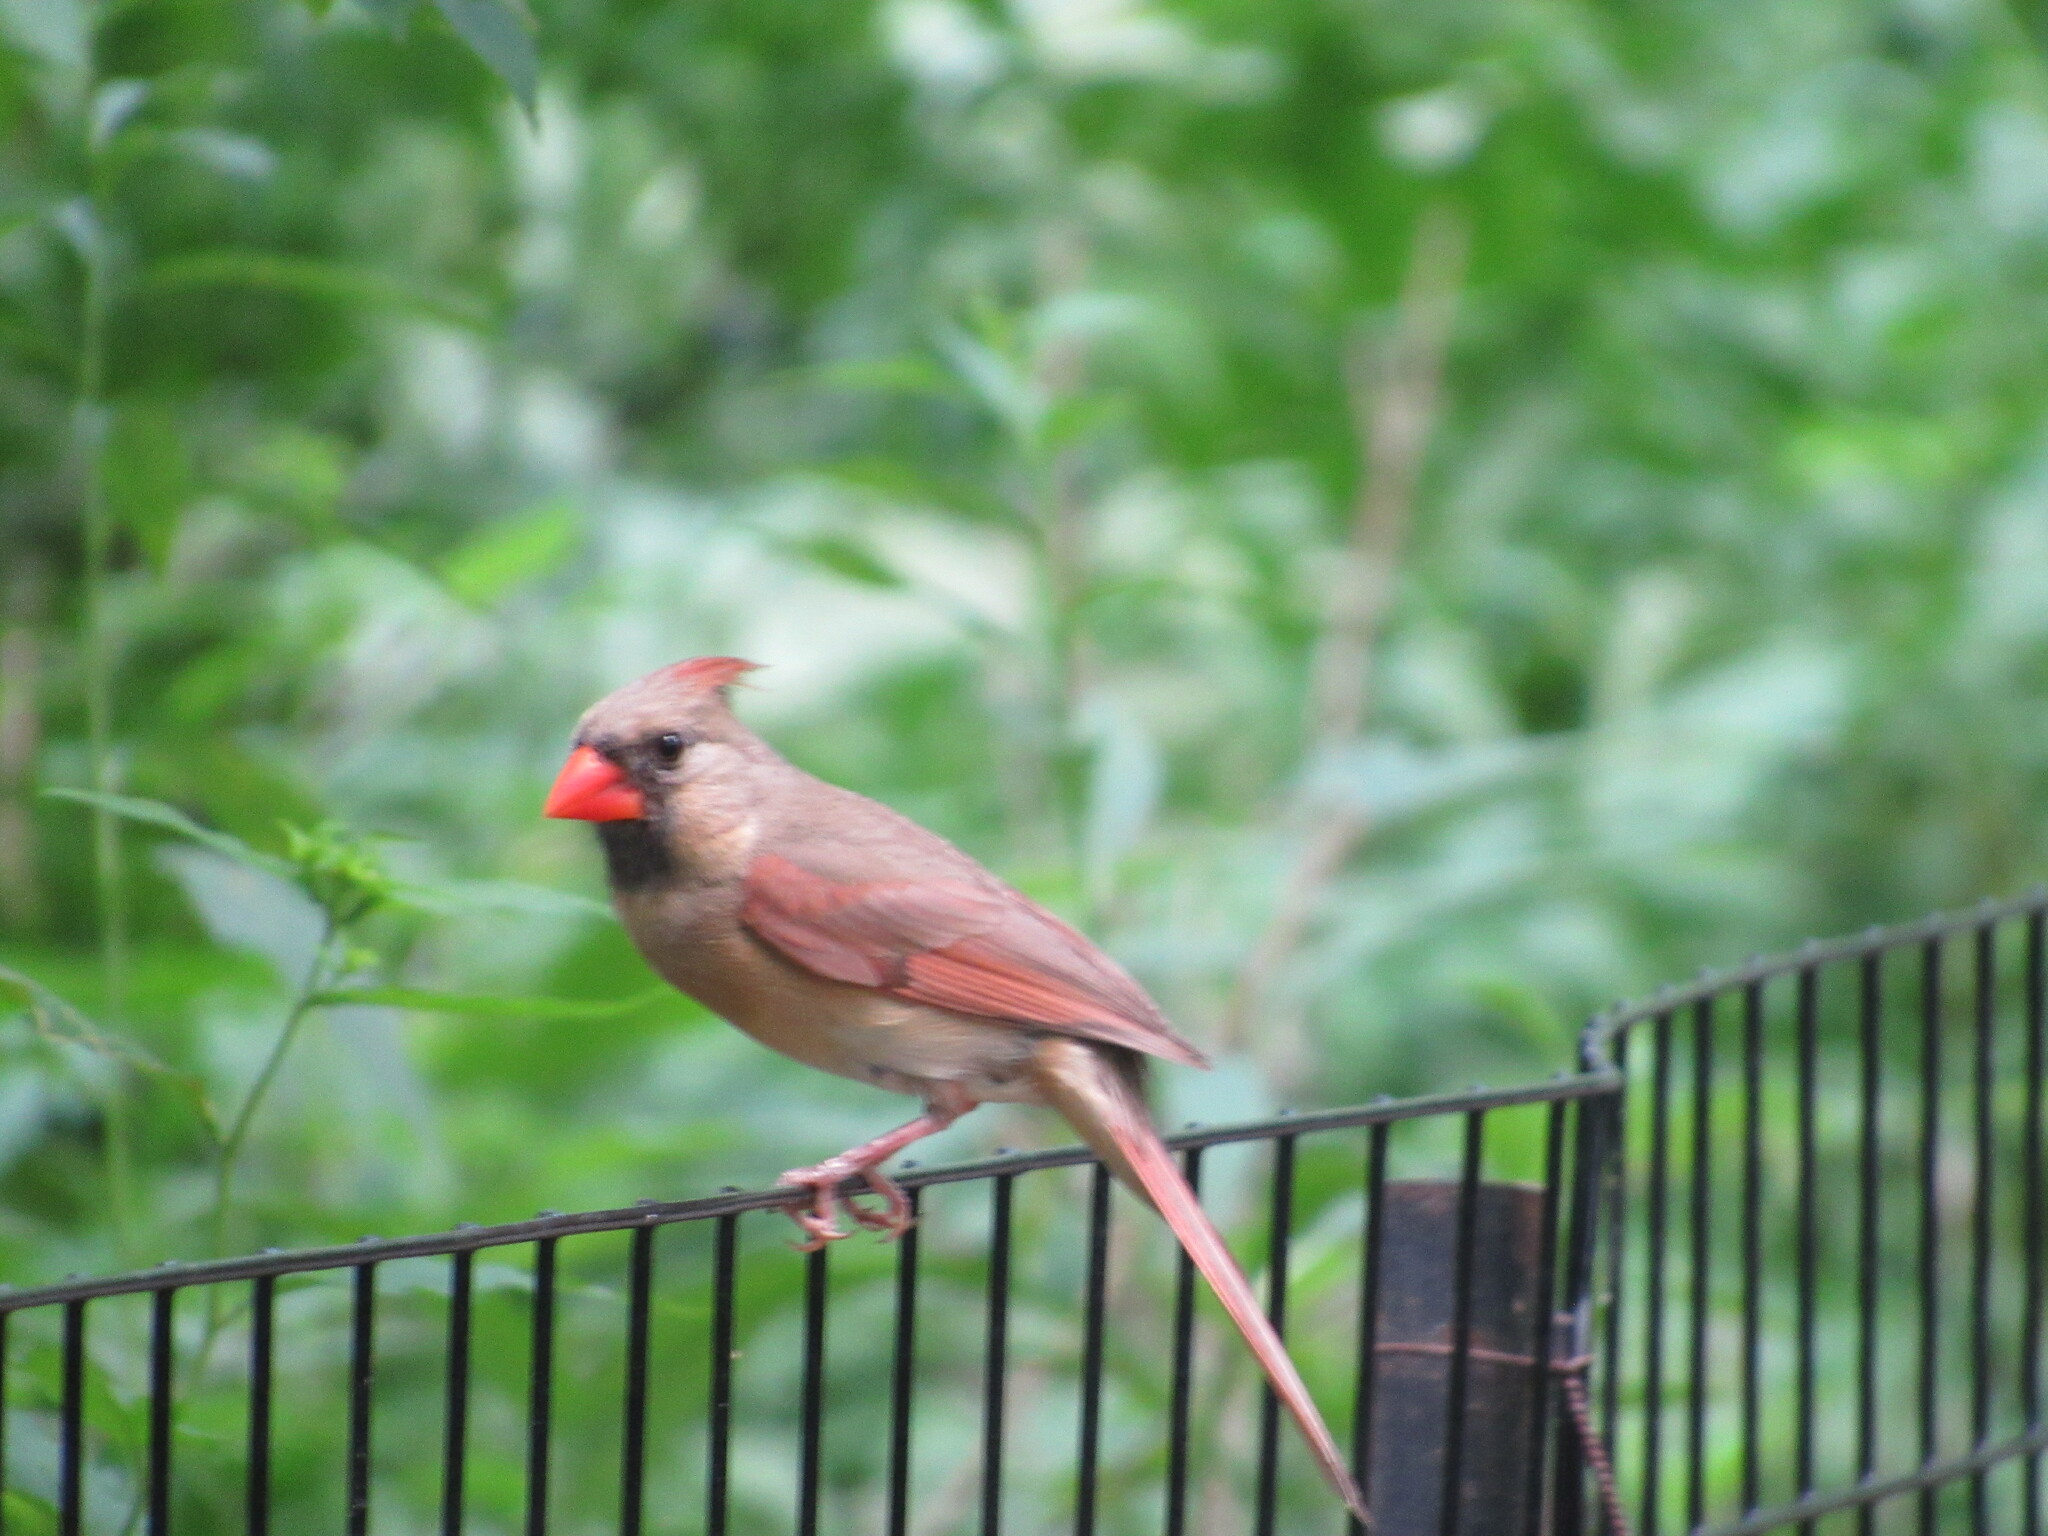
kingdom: Animalia
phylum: Chordata
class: Aves
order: Passeriformes
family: Cardinalidae
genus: Cardinalis
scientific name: Cardinalis cardinalis
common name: Northern cardinal
